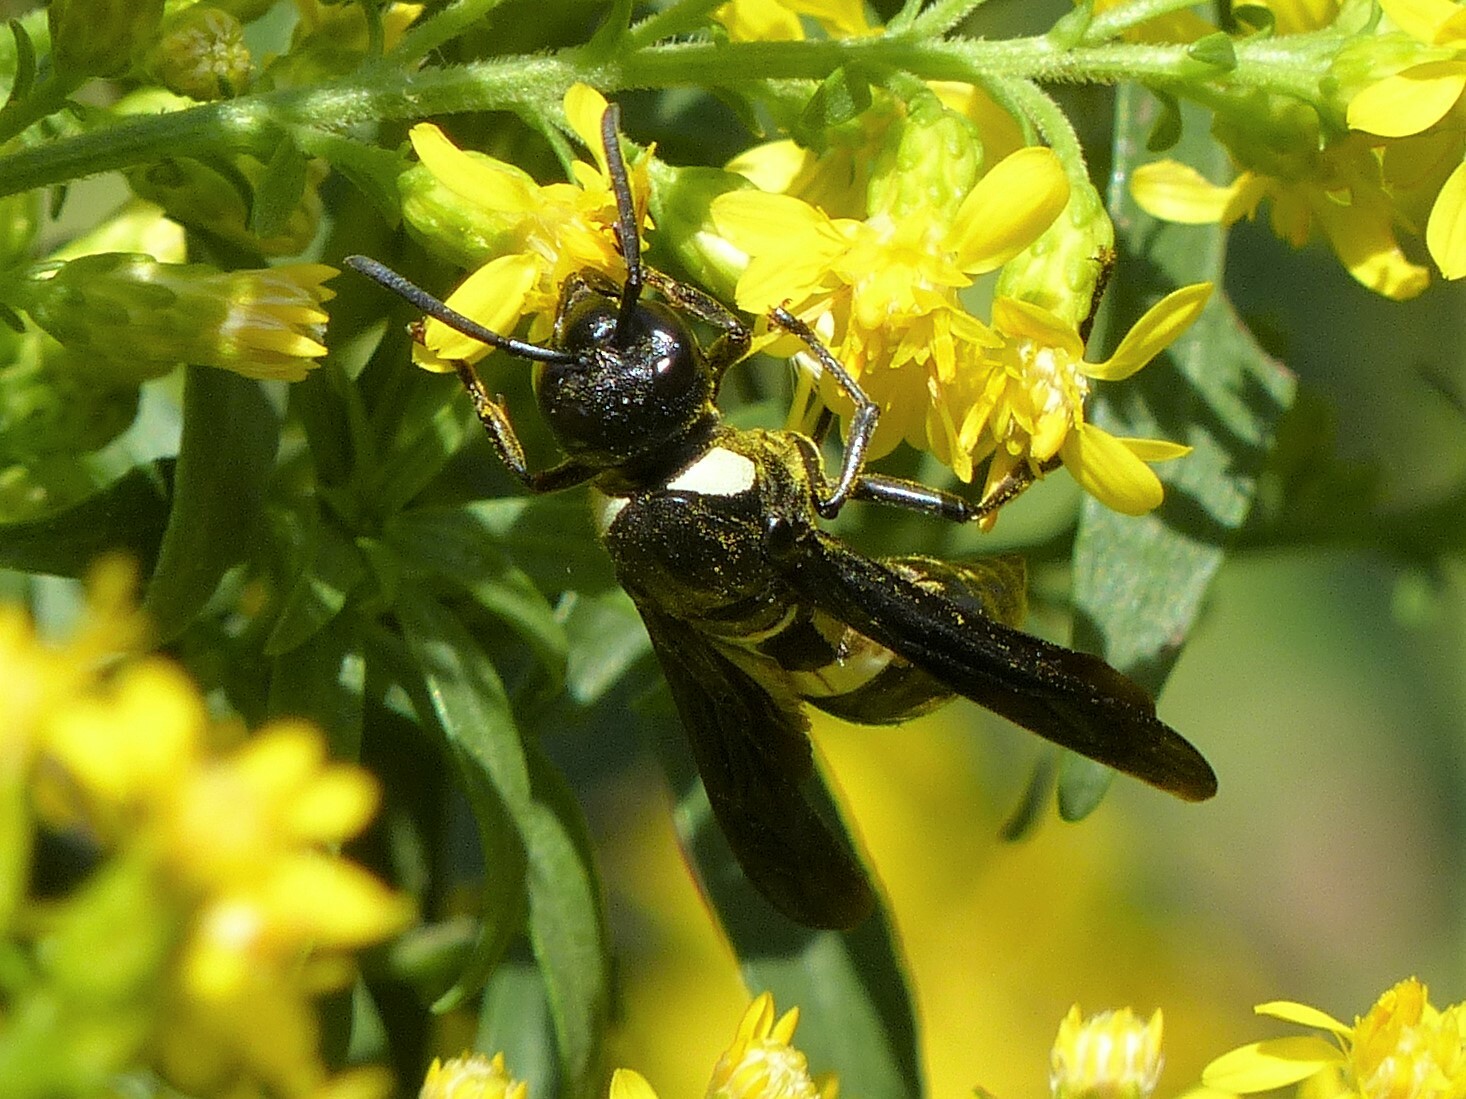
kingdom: Animalia
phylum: Arthropoda
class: Insecta
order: Hymenoptera
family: Eumenidae
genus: Monobia
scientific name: Monobia quadridens
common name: Four-toothed mason wasp
